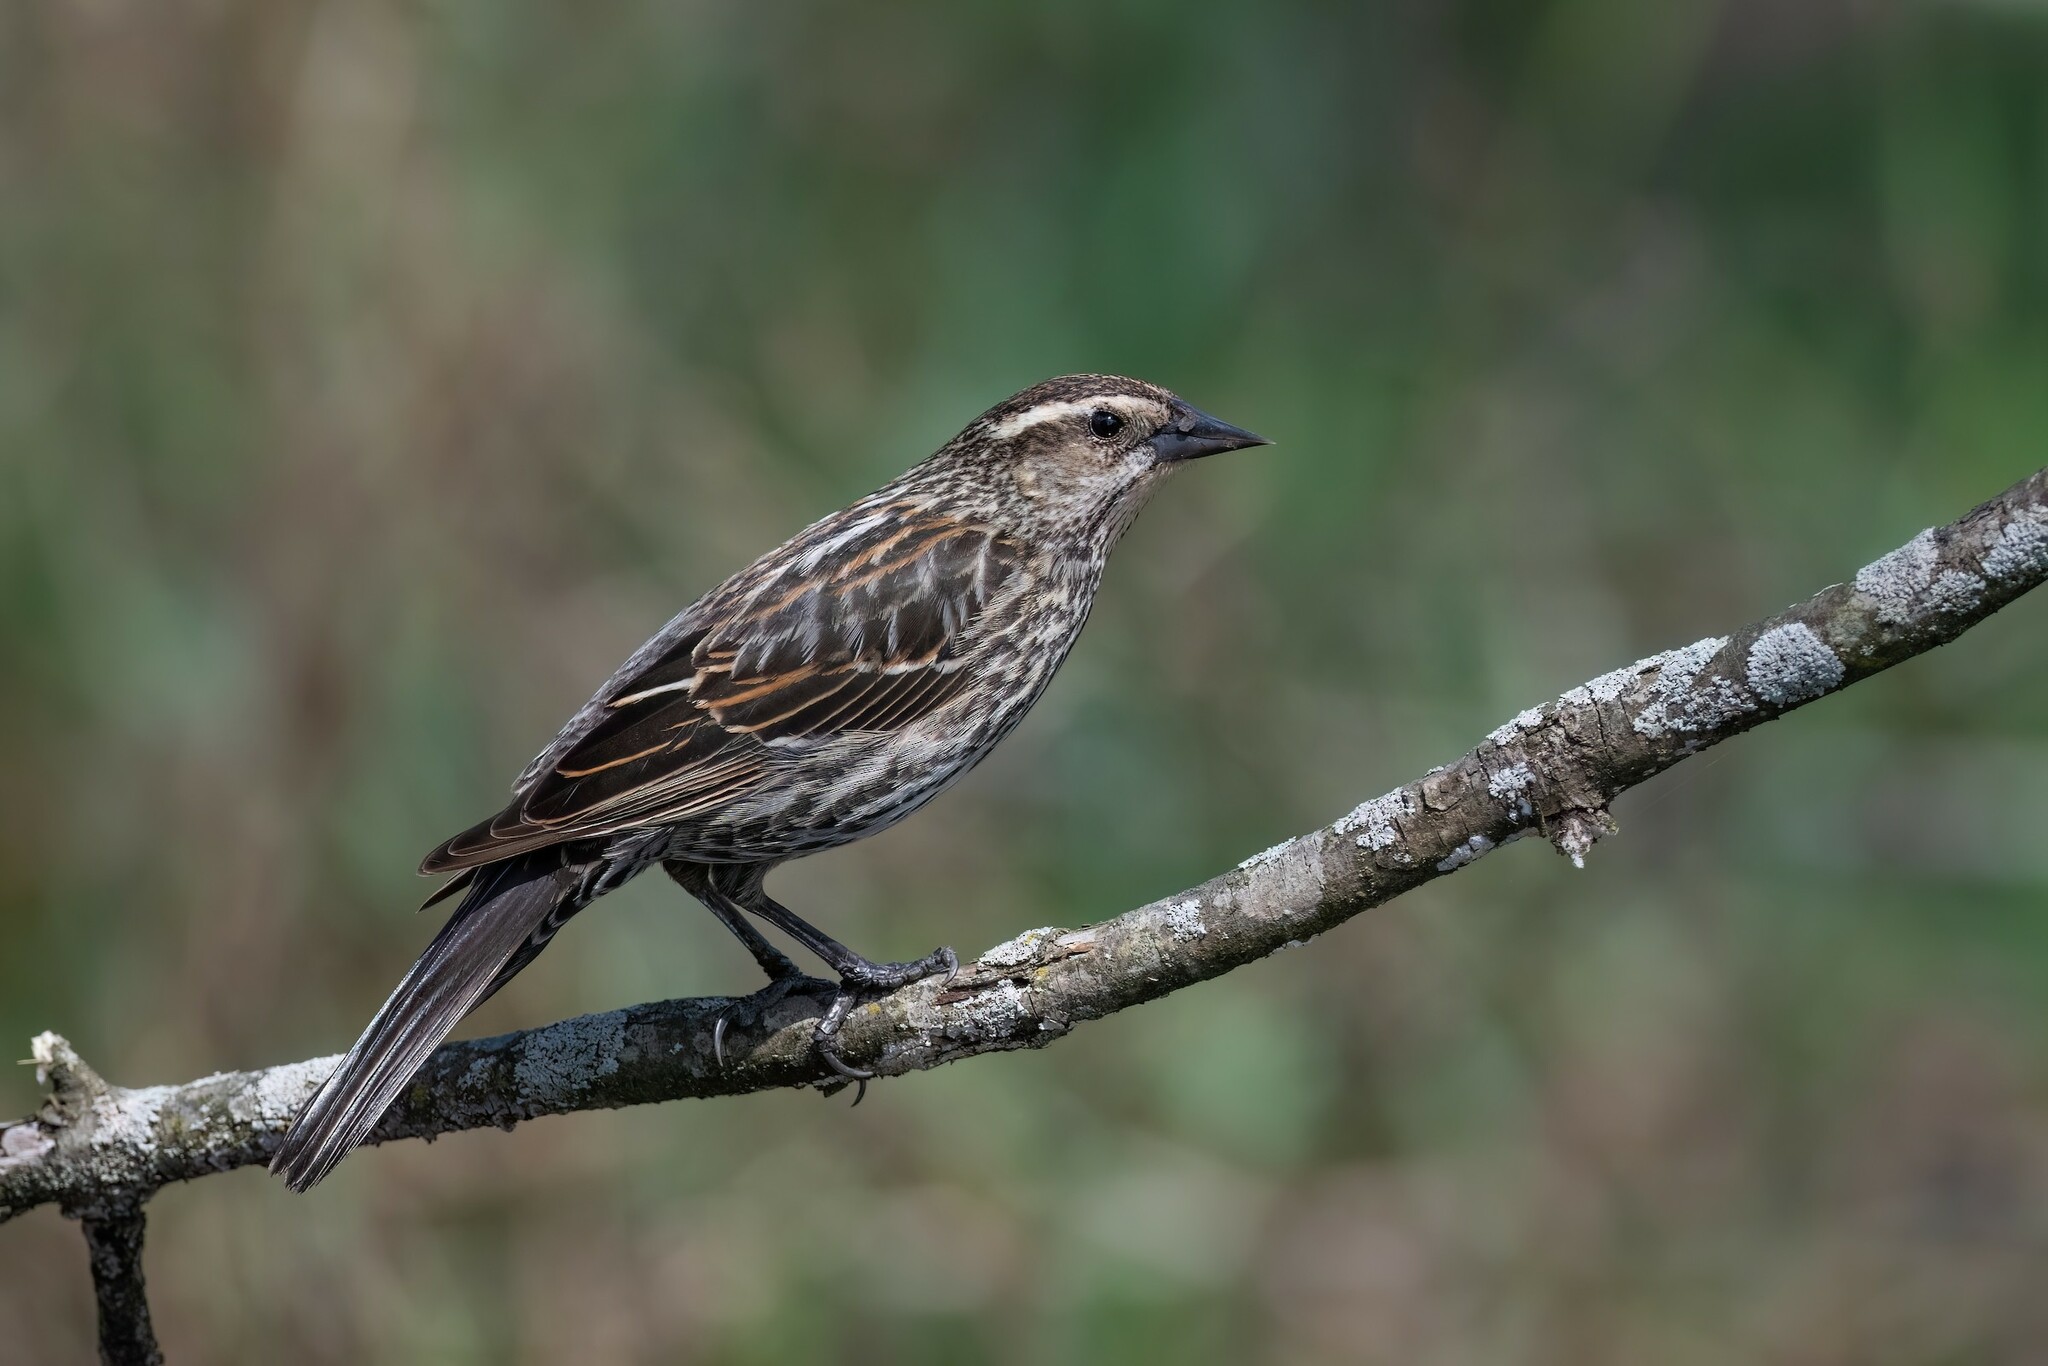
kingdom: Animalia
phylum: Chordata
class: Aves
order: Passeriformes
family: Icteridae
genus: Agelaius
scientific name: Agelaius phoeniceus
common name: Red-winged blackbird
